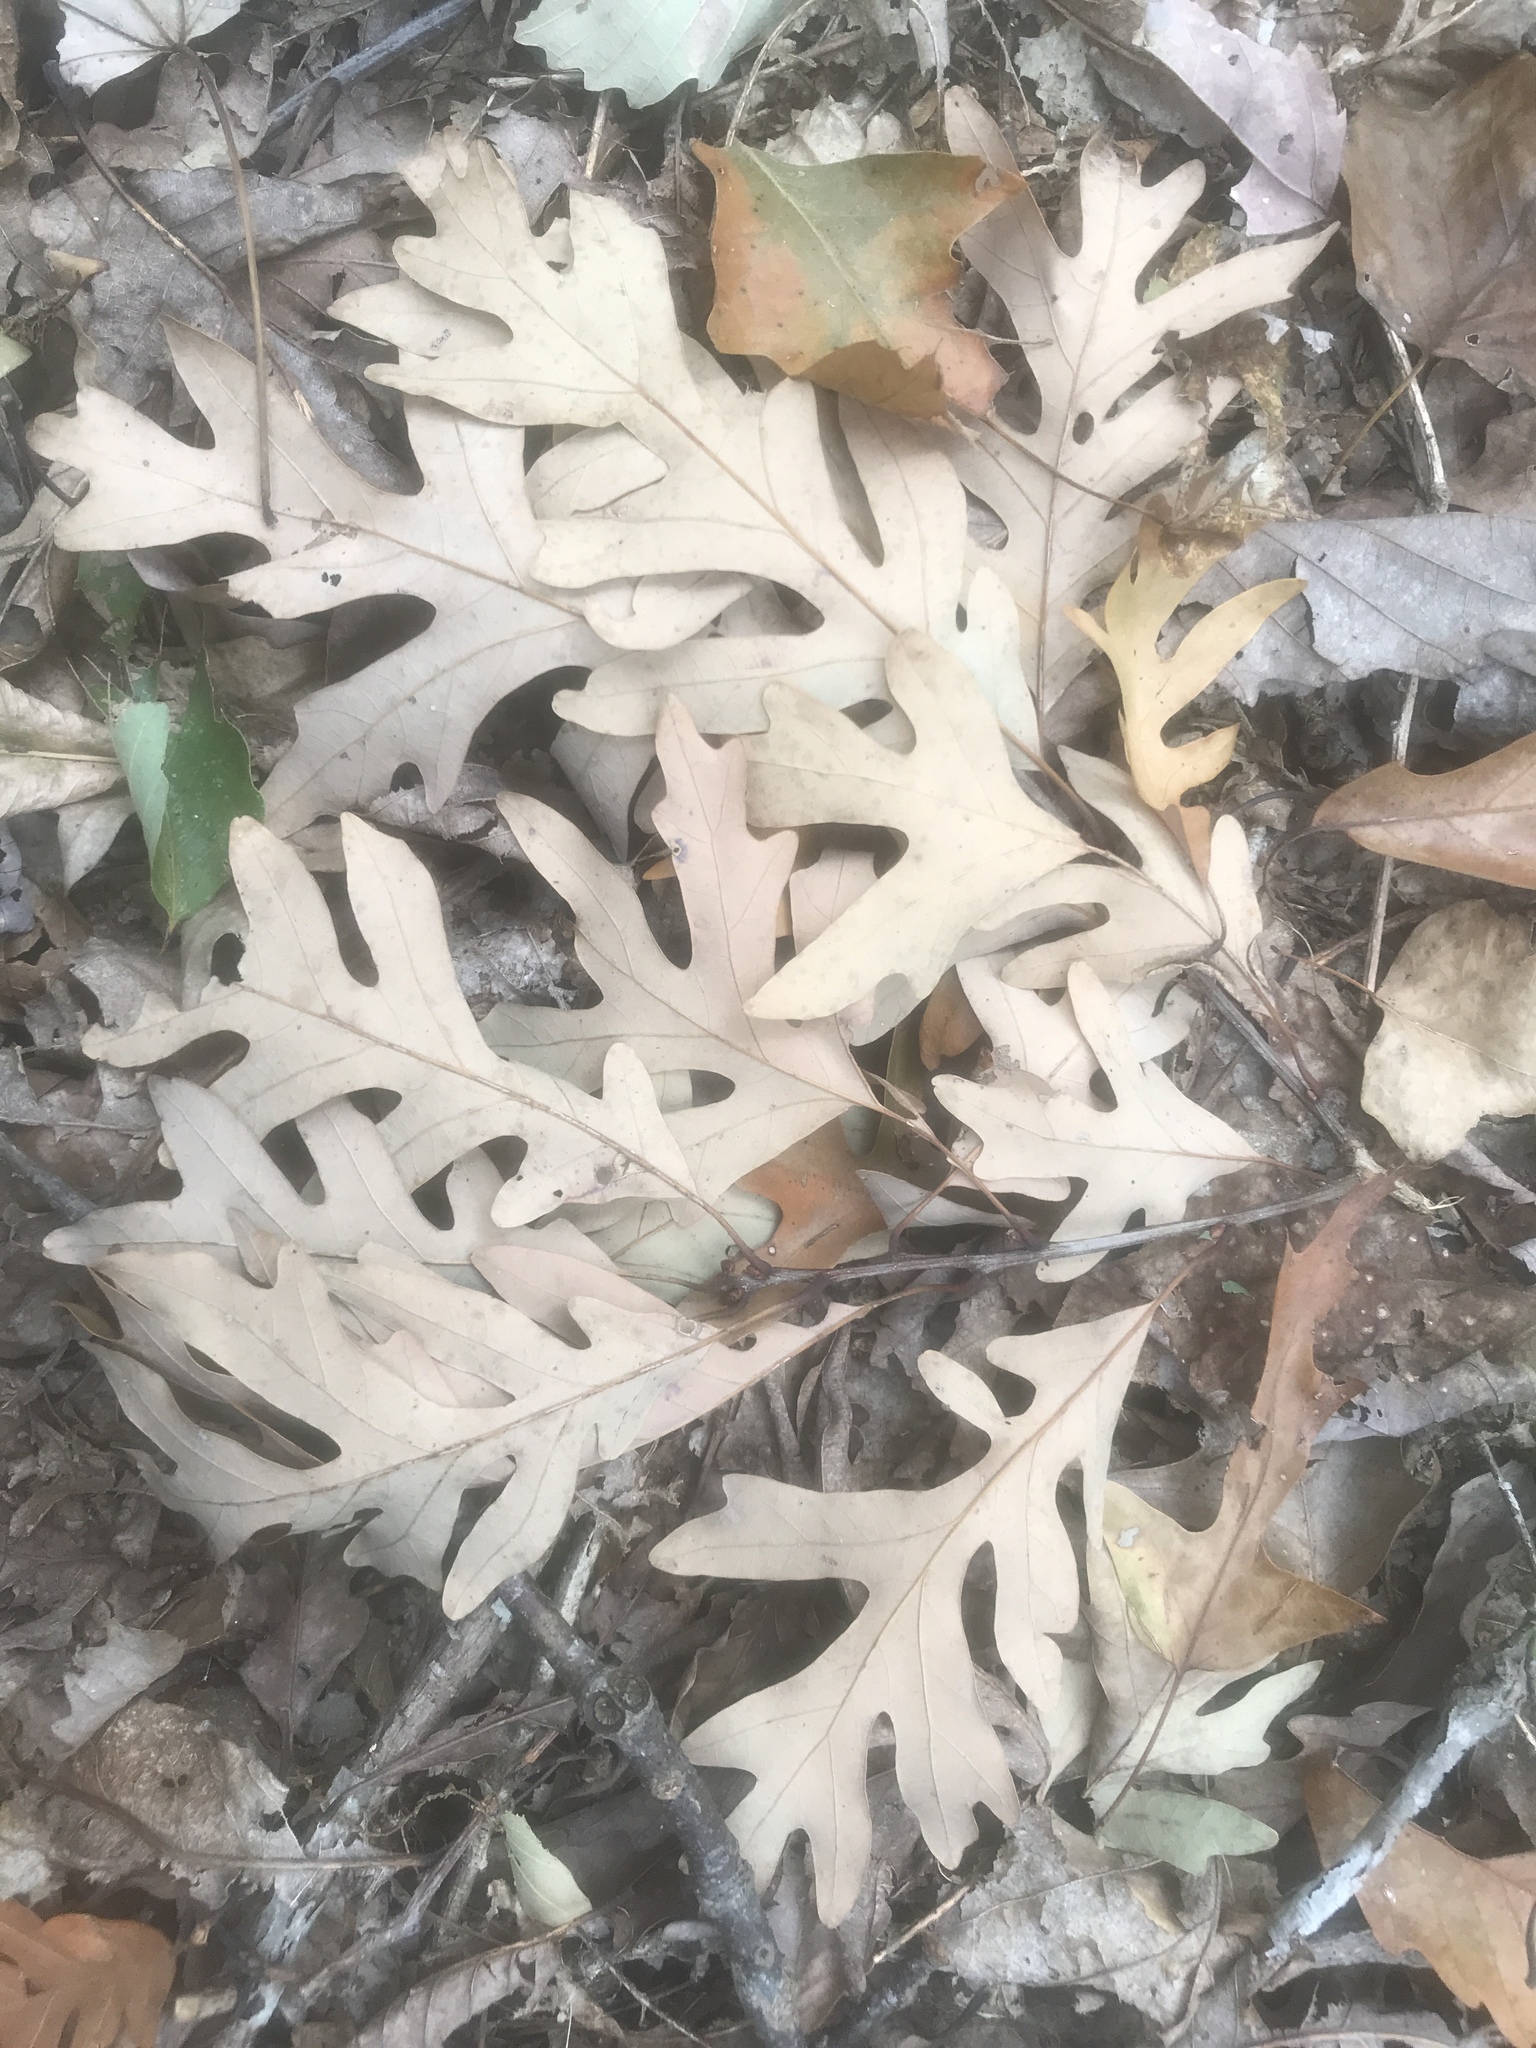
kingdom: Plantae
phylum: Tracheophyta
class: Magnoliopsida
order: Fagales
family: Fagaceae
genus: Quercus
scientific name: Quercus alba
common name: White oak
